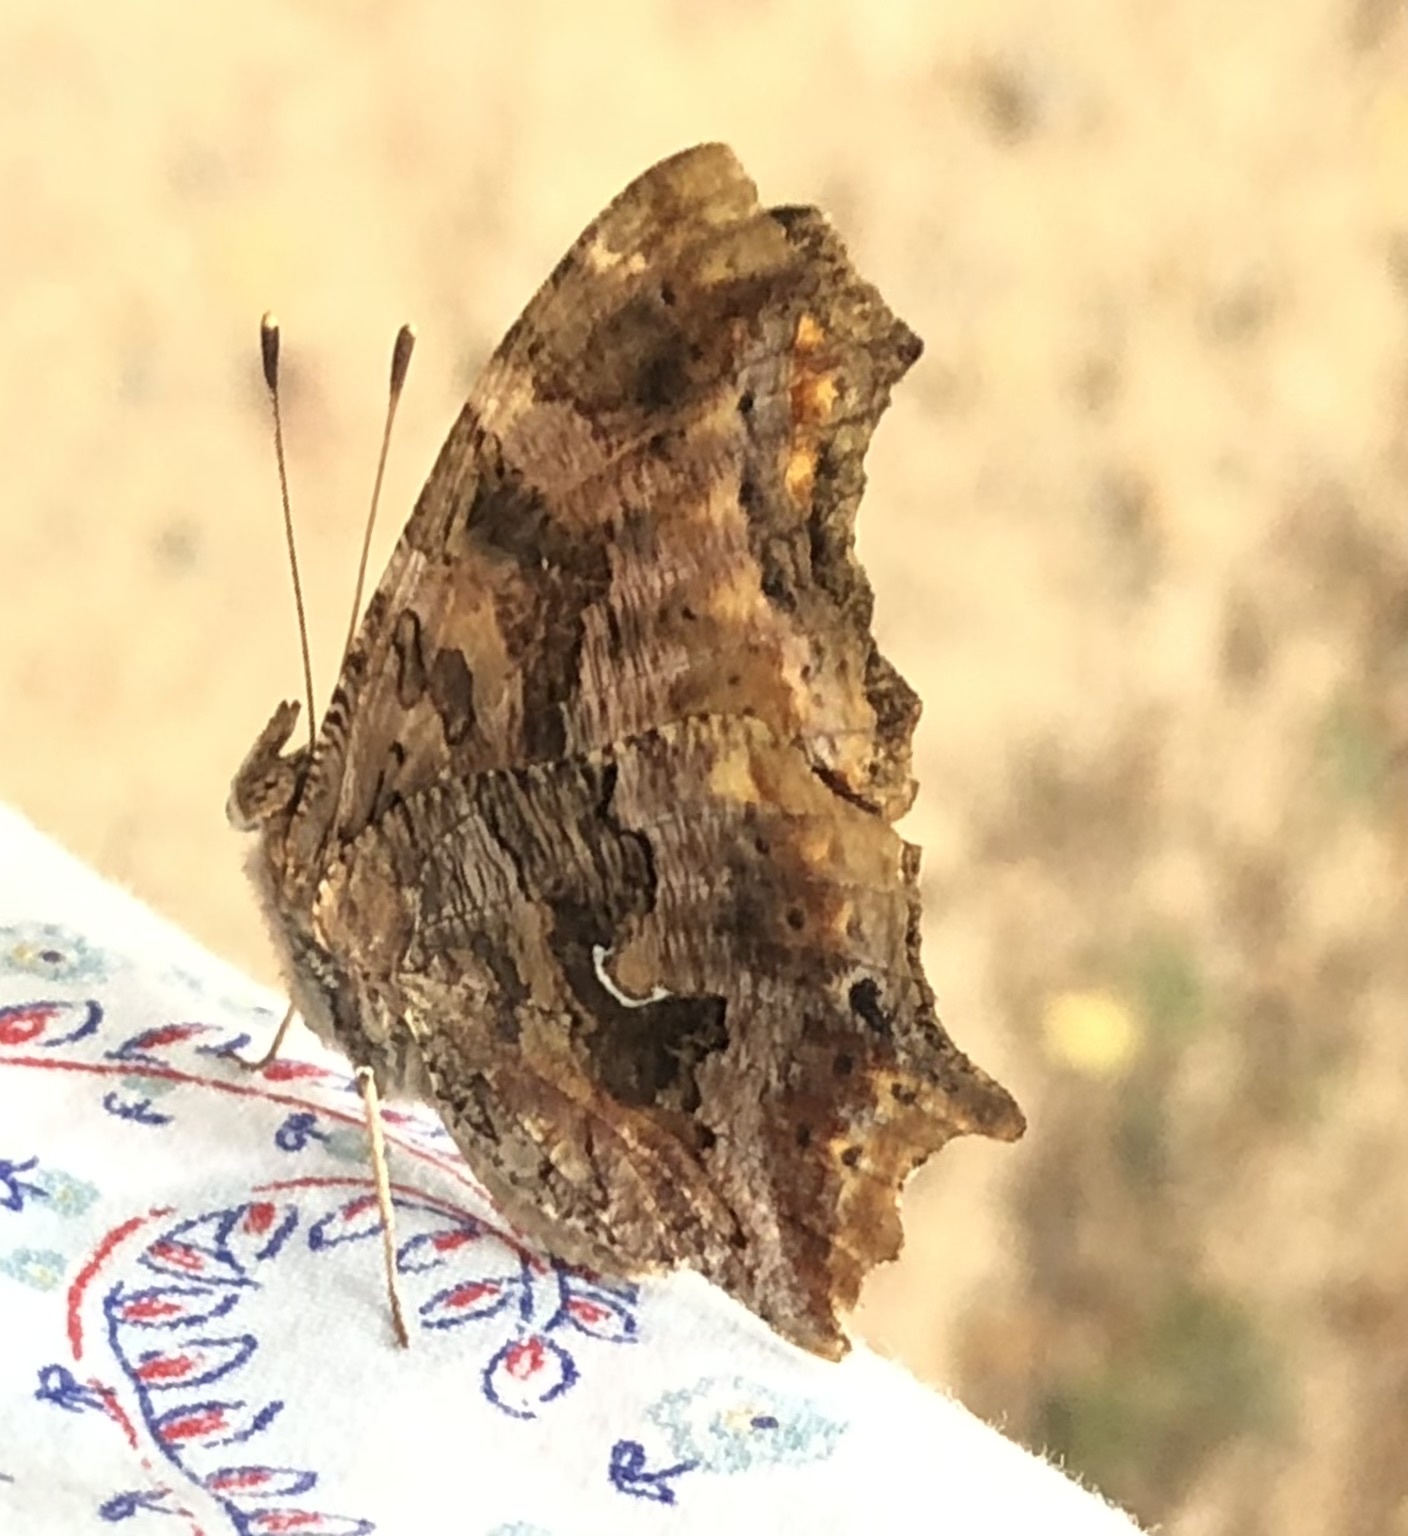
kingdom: Animalia
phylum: Arthropoda
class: Insecta
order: Lepidoptera
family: Nymphalidae
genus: Polygonia
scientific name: Polygonia comma
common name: Eastern comma
